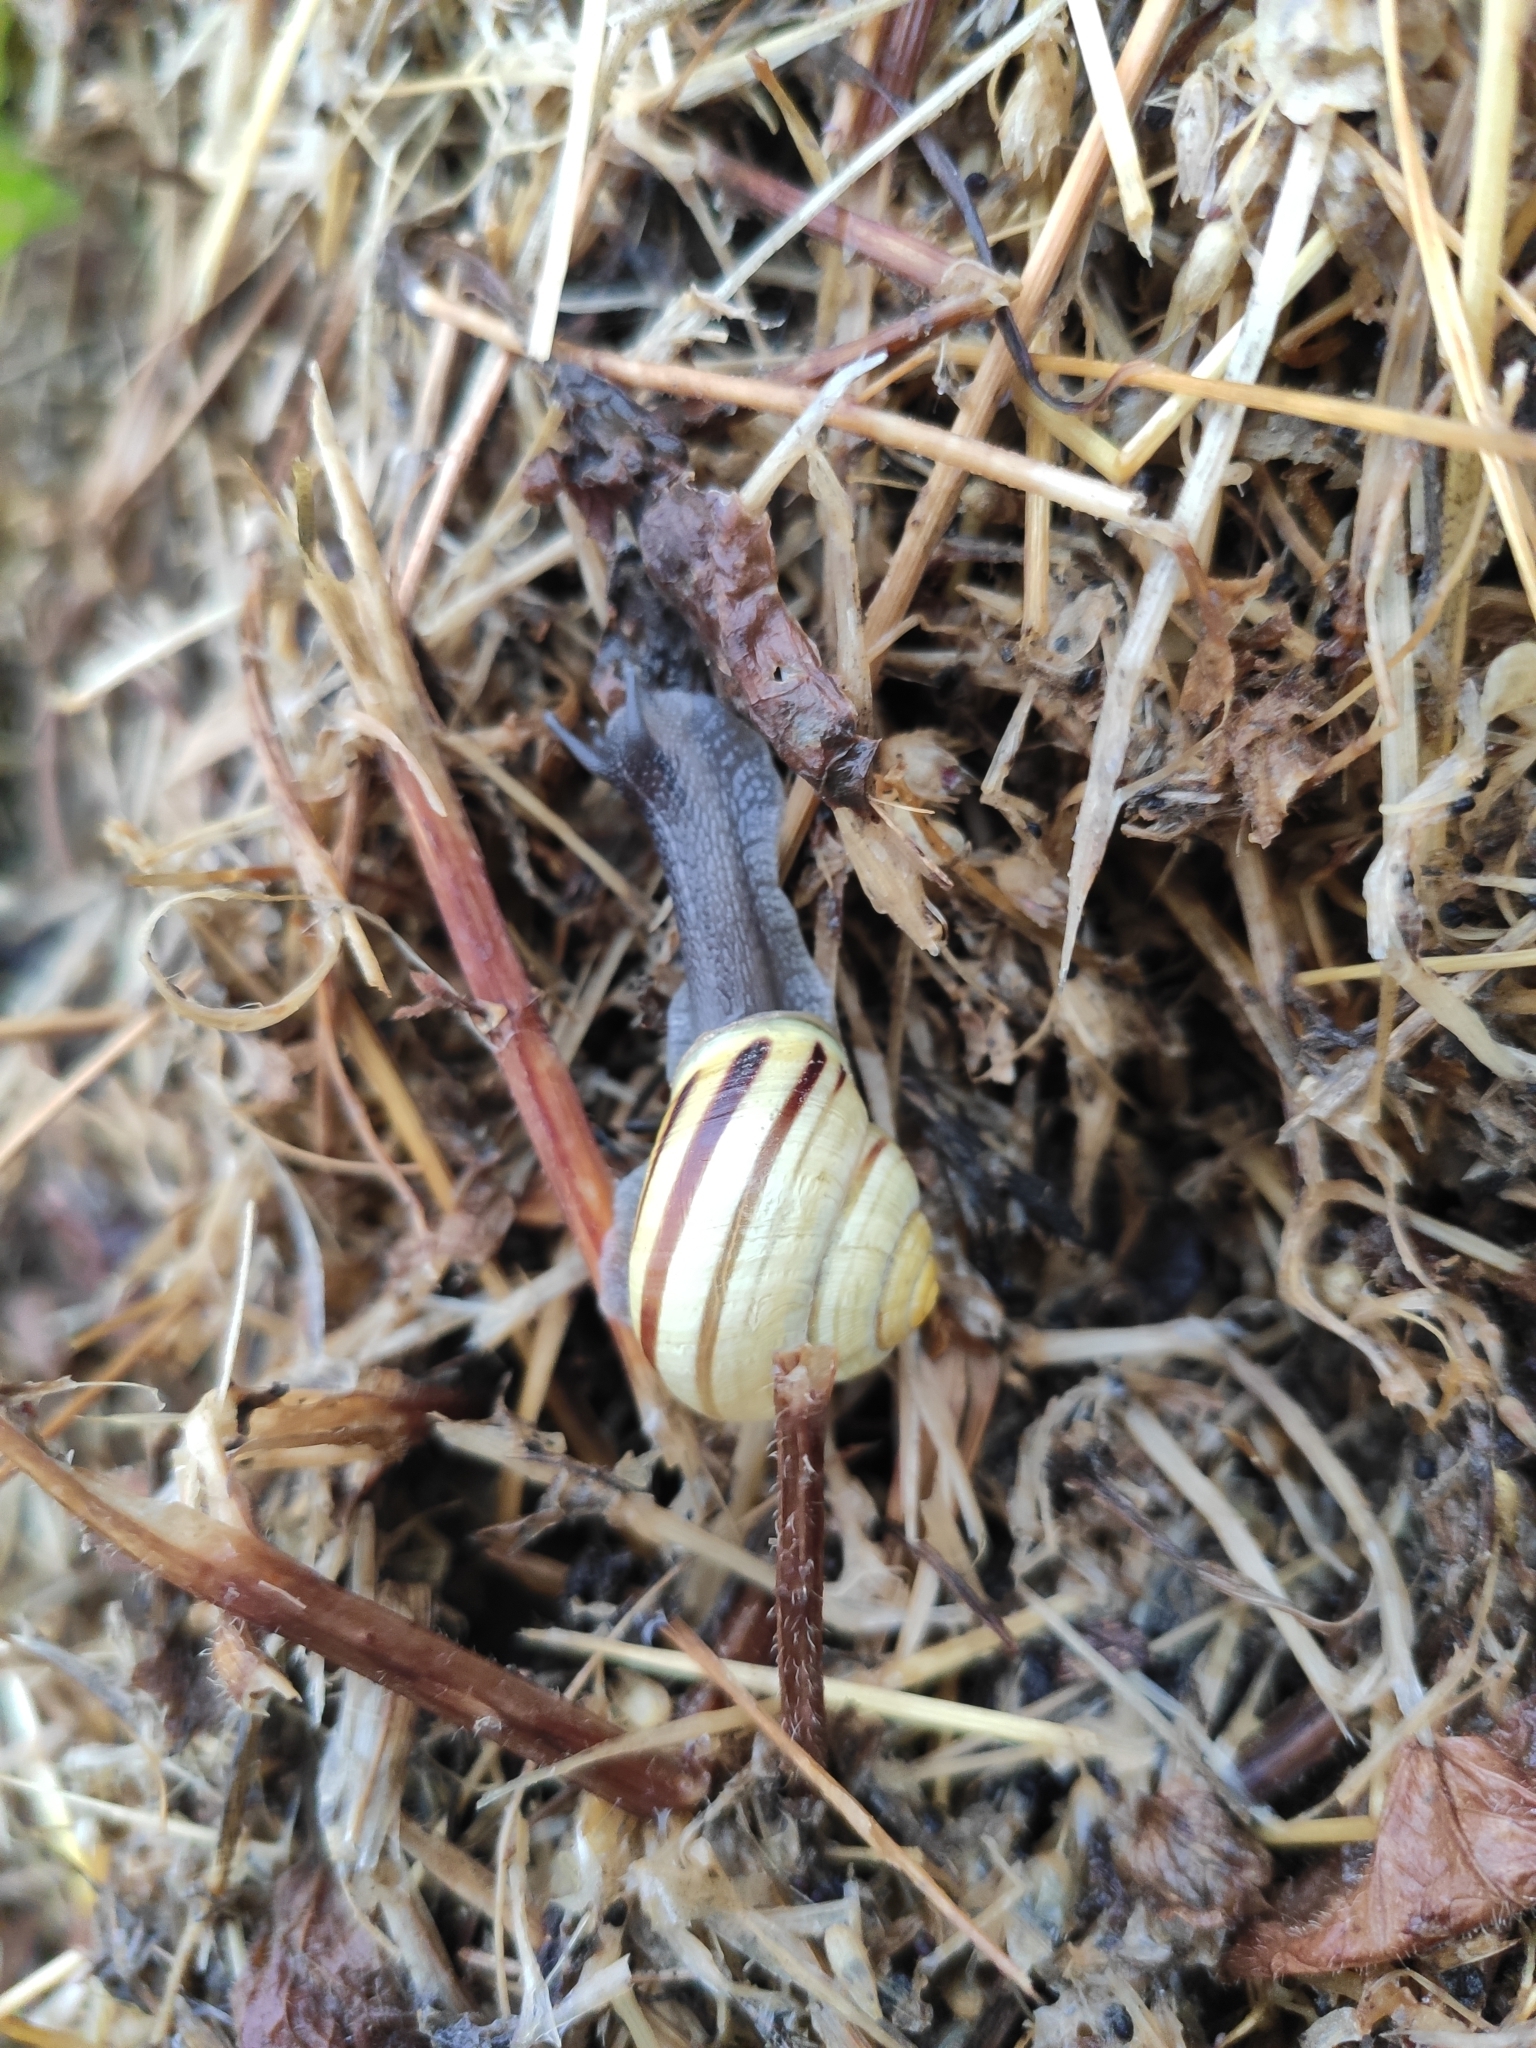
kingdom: Animalia
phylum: Mollusca
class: Gastropoda
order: Stylommatophora
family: Helicidae
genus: Cepaea
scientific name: Cepaea hortensis
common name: White-lip gardensnail
